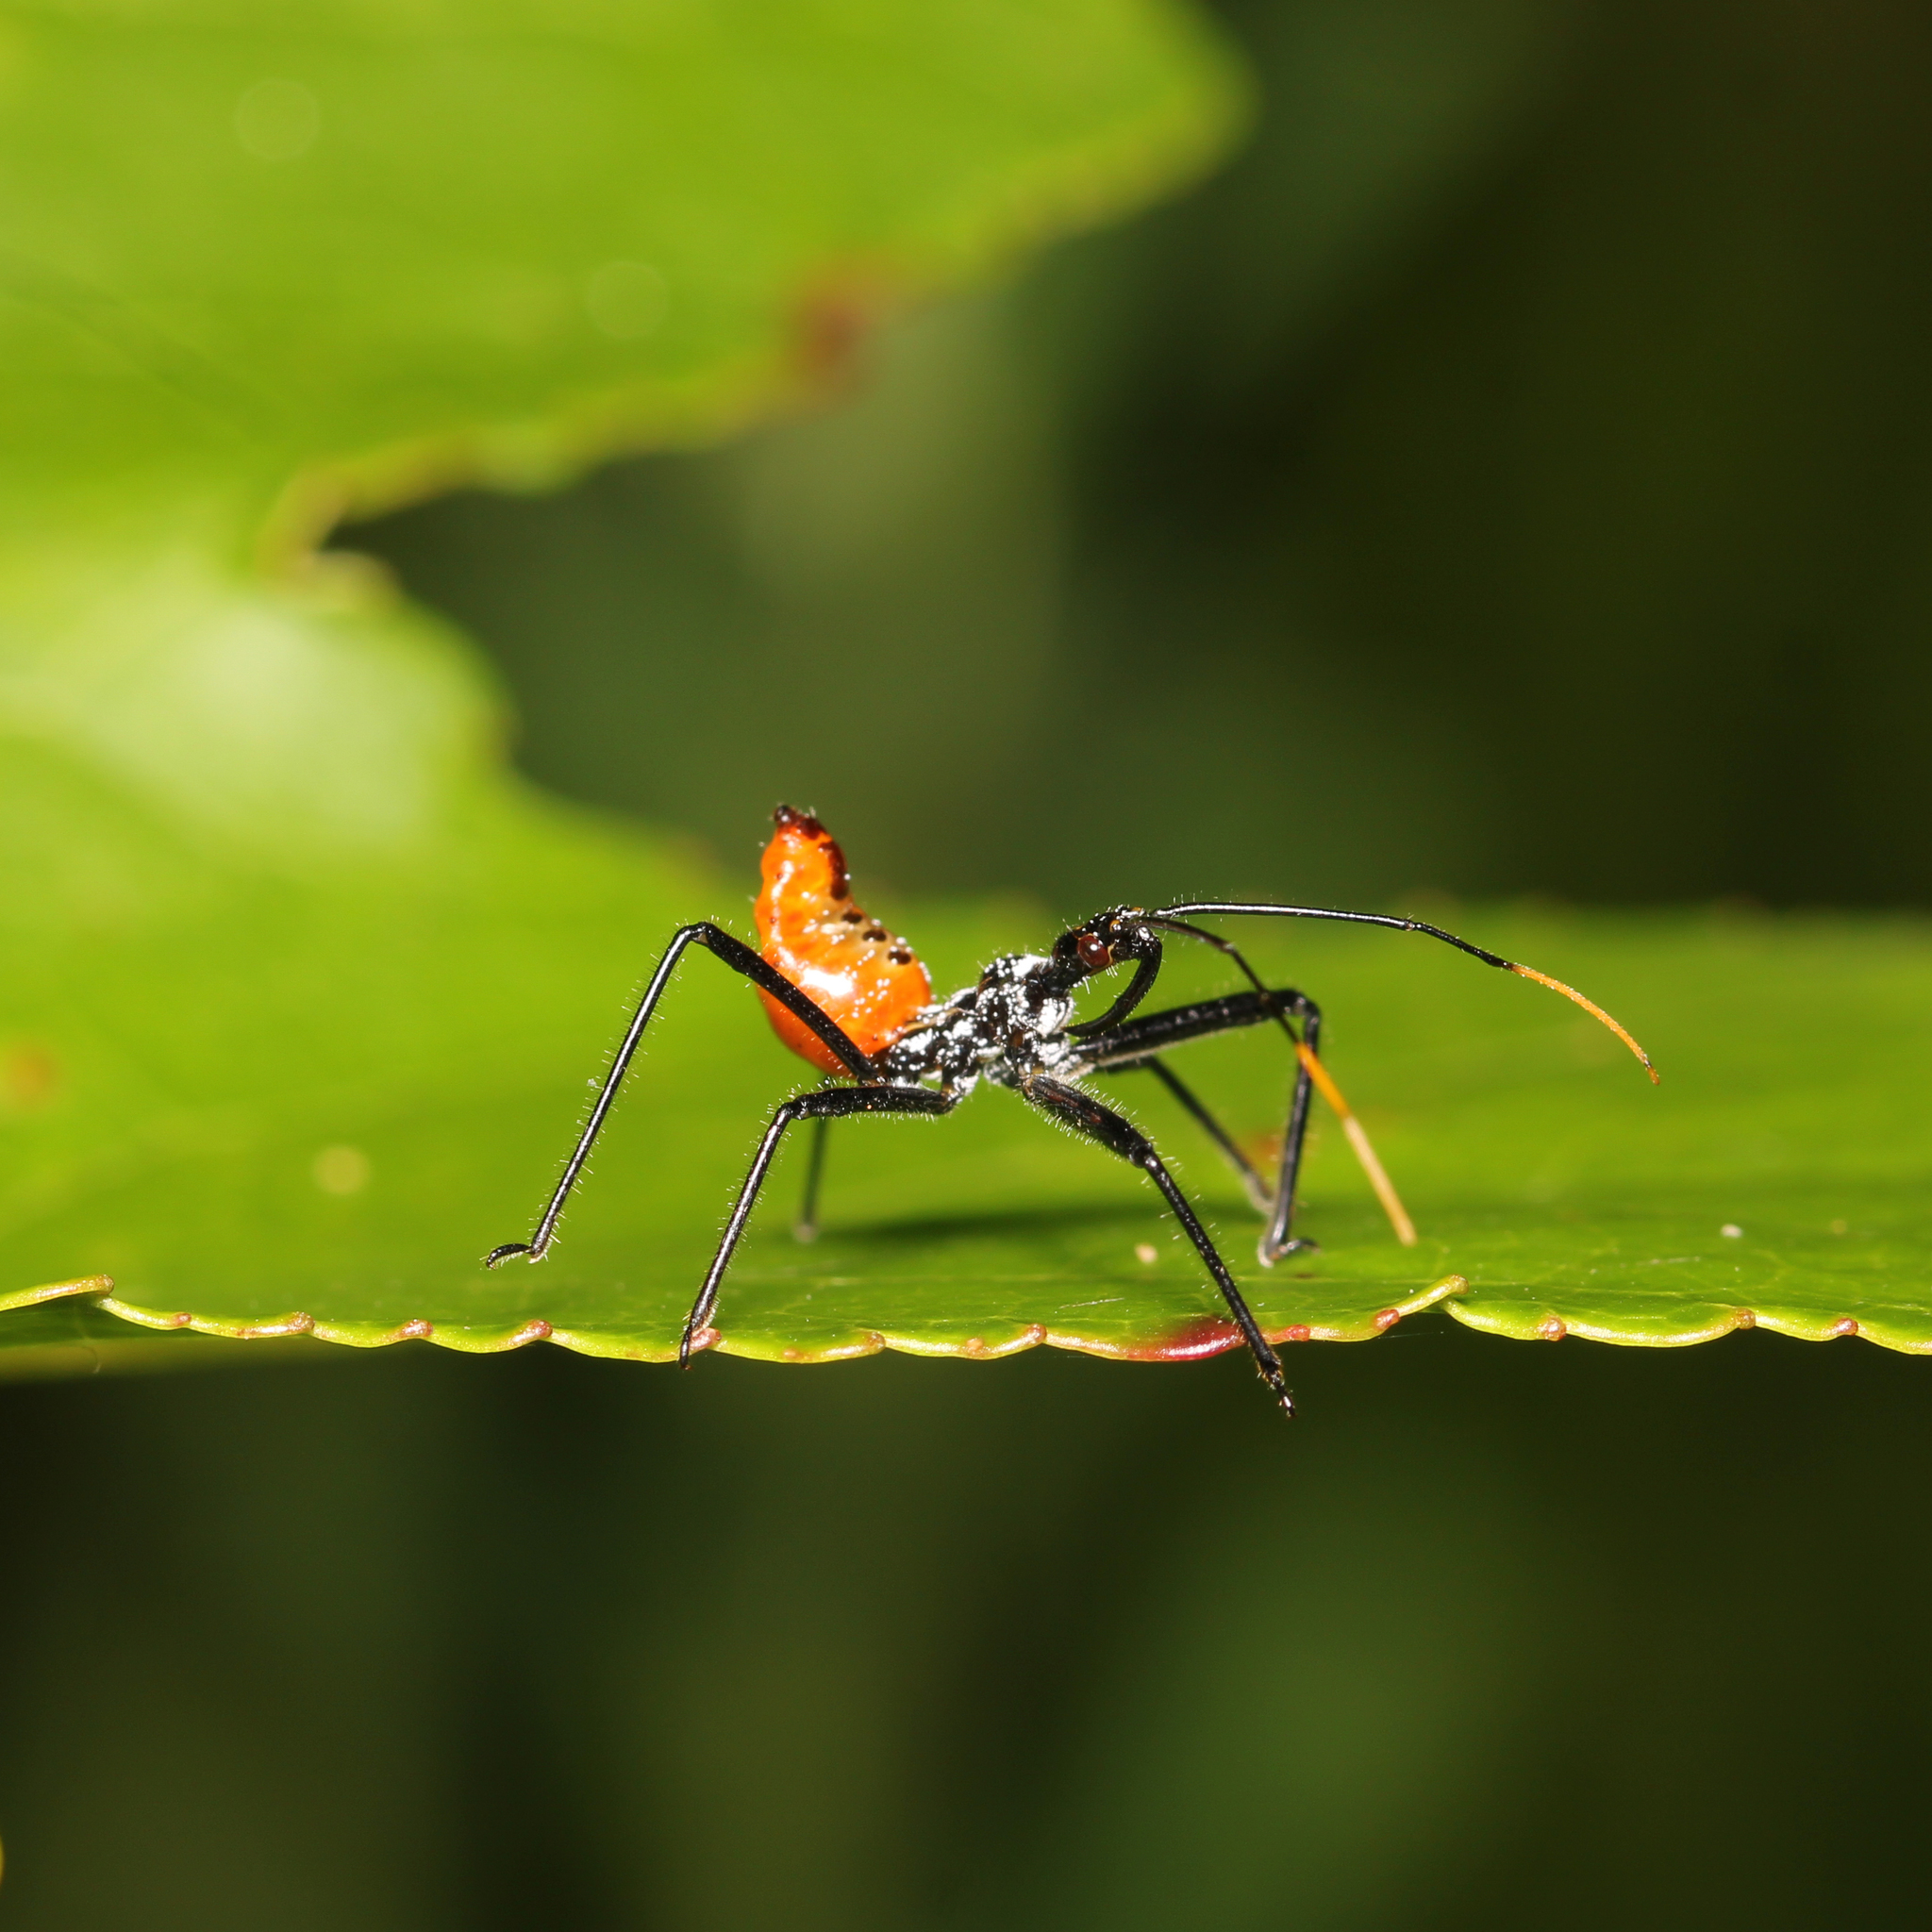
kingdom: Animalia
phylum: Arthropoda
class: Insecta
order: Hemiptera
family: Reduviidae
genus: Arilus
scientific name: Arilus cristatus
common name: North american wheel bug
